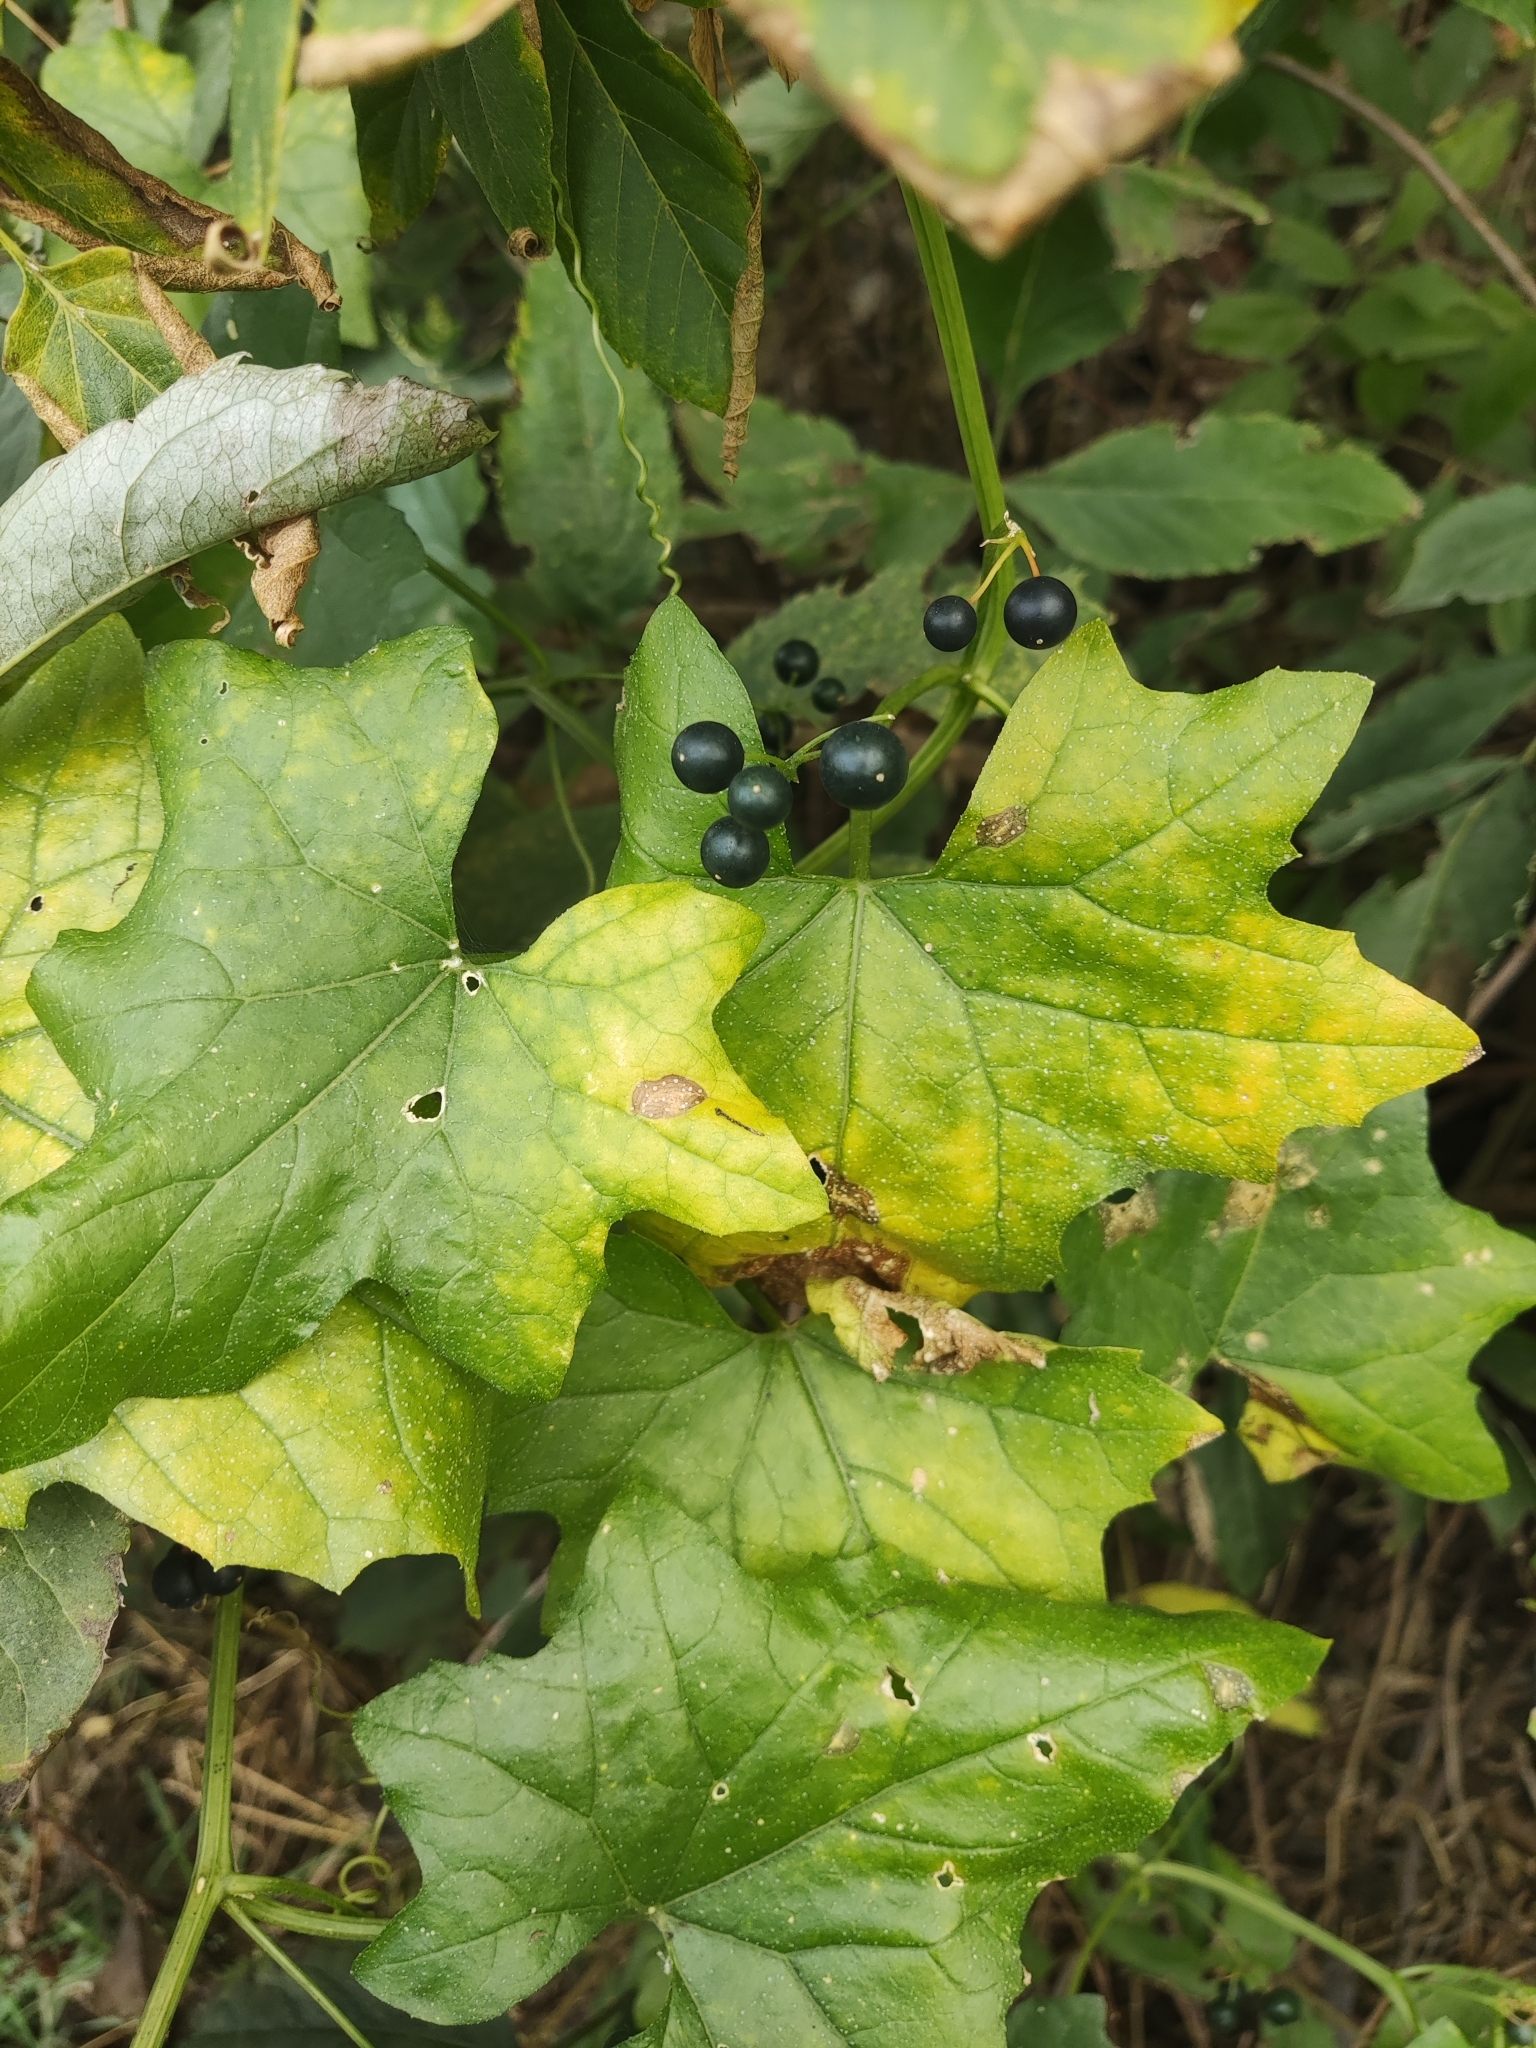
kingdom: Plantae
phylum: Tracheophyta
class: Magnoliopsida
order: Cucurbitales
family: Cucurbitaceae
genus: Bryonia
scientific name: Bryonia alba
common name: White bryony
